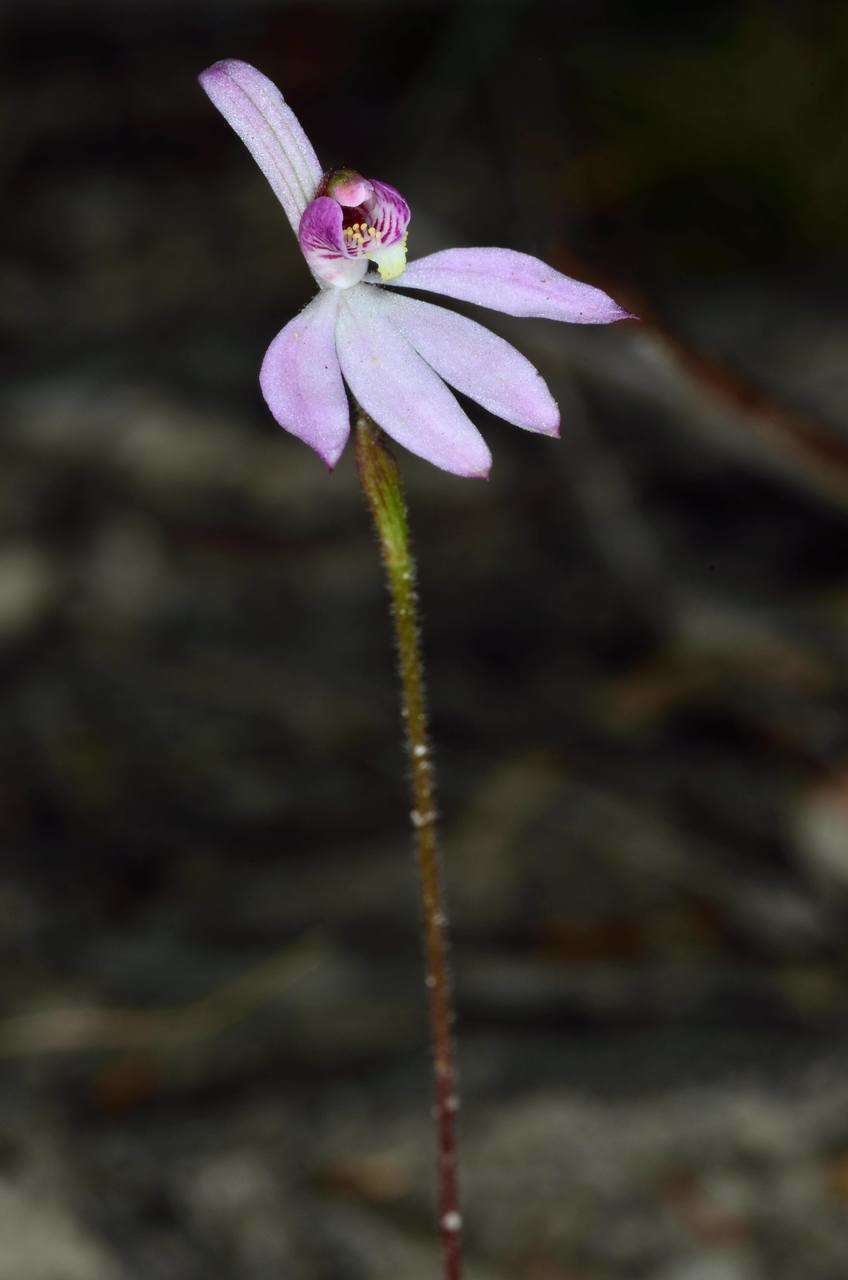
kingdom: Plantae
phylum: Tracheophyta
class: Liliopsida
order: Asparagales
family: Orchidaceae
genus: Caladenia
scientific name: Caladenia carnea
